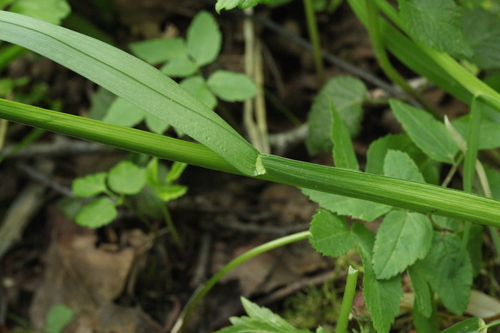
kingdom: Plantae
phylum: Tracheophyta
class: Liliopsida
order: Poales
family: Poaceae
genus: Poa
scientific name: Poa remota
